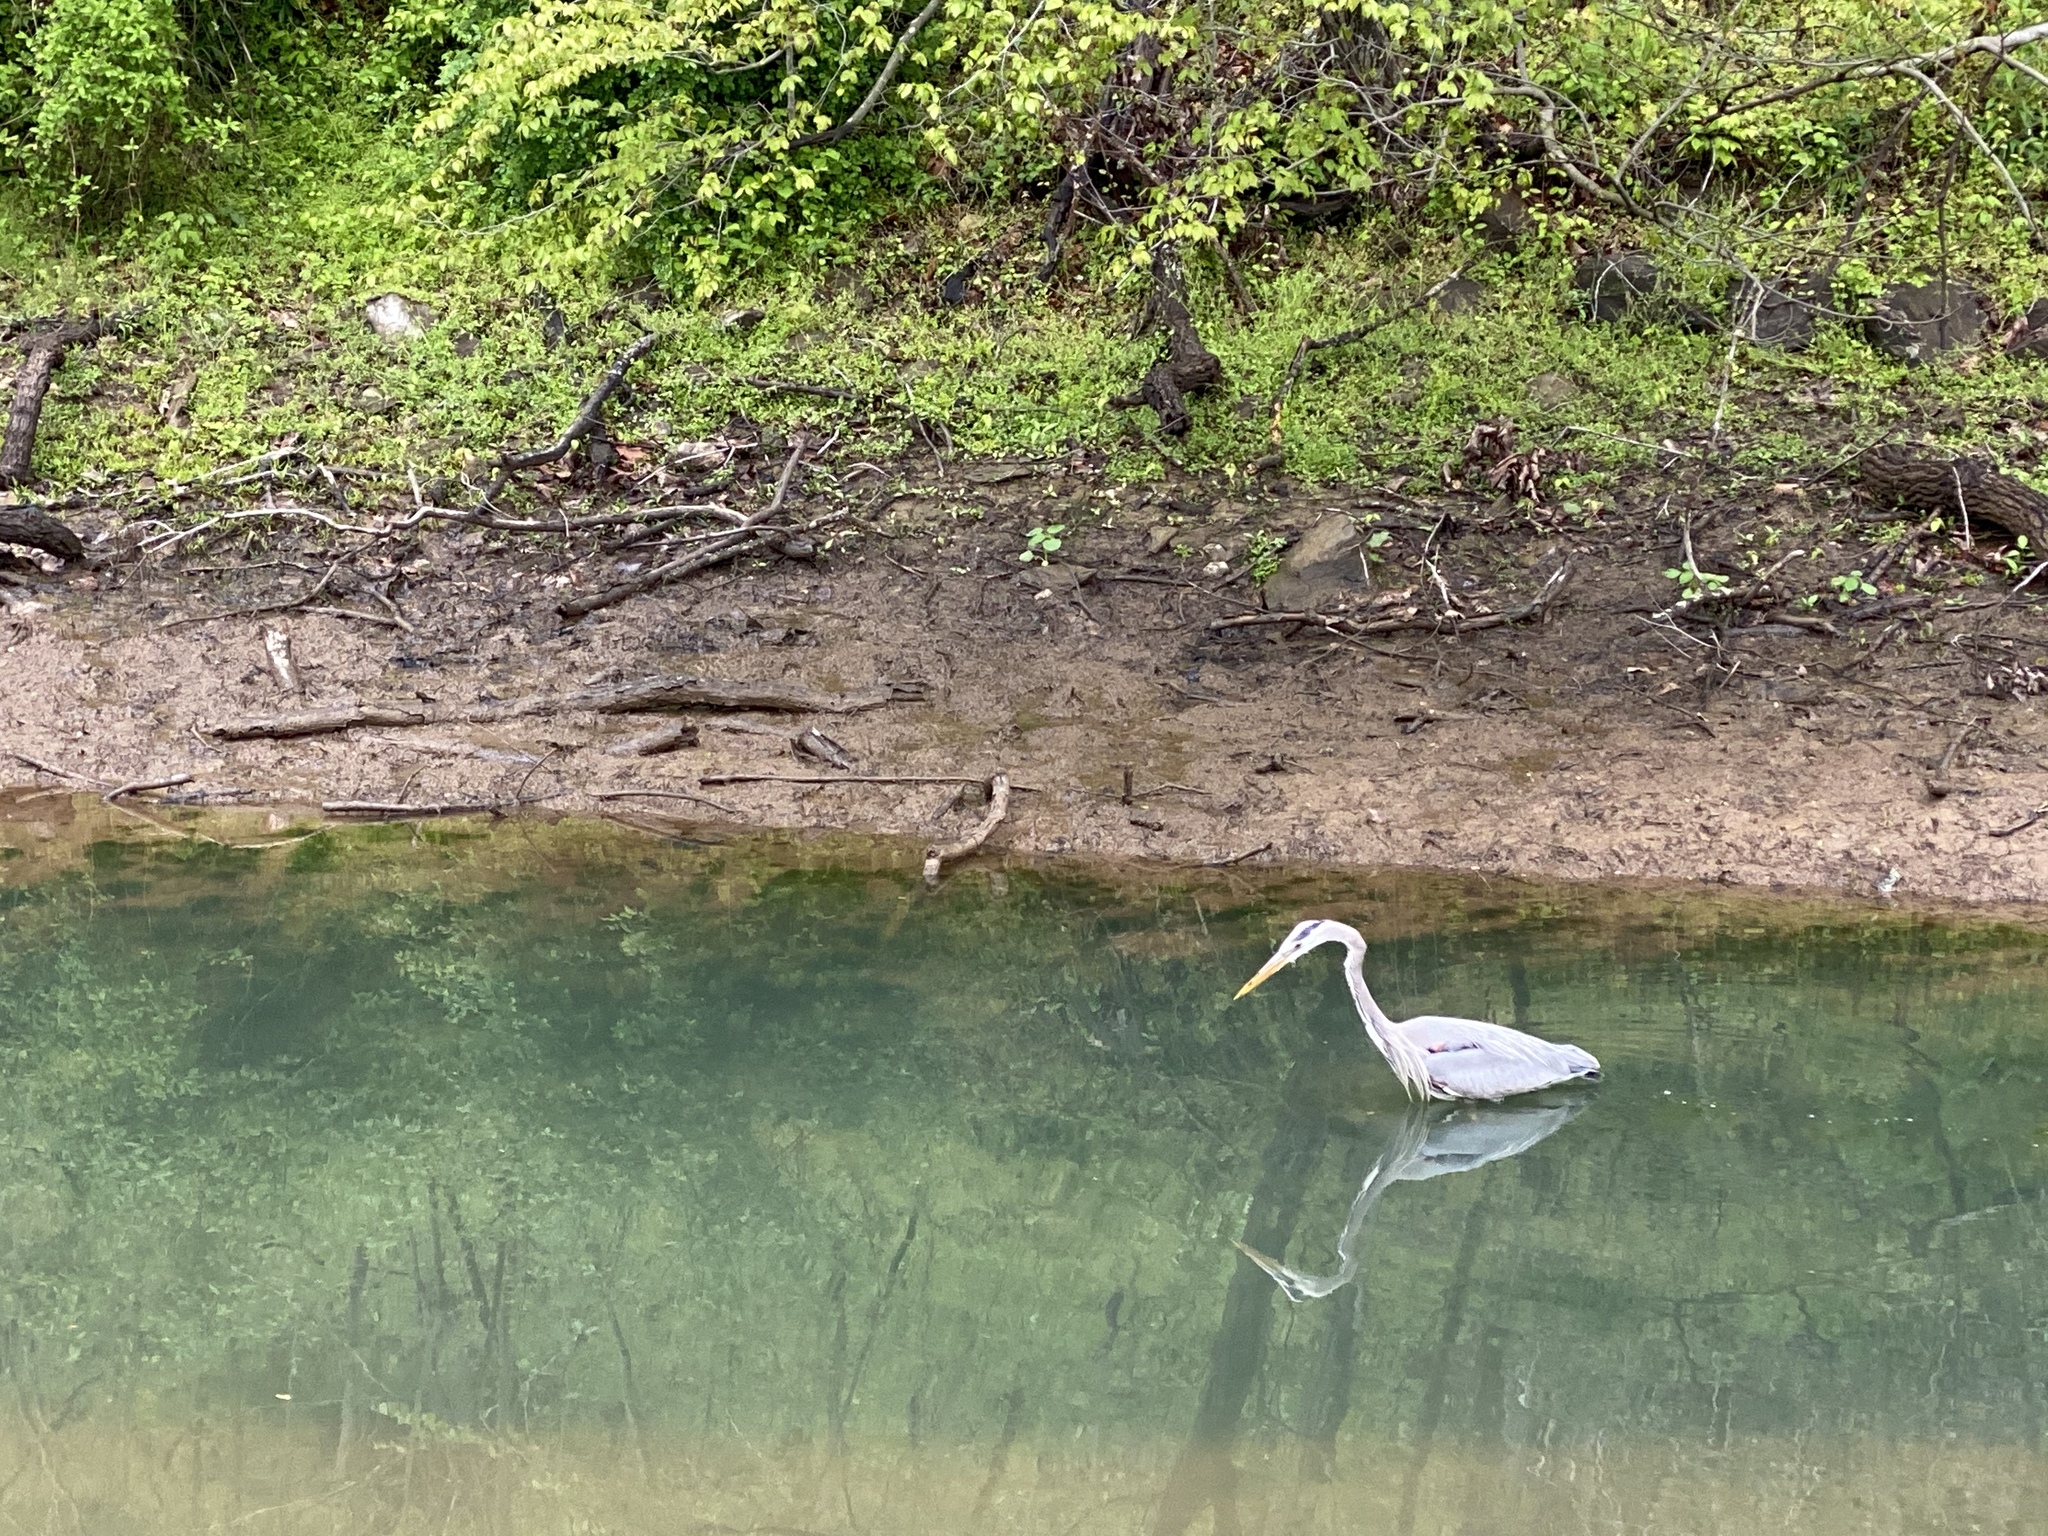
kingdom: Animalia
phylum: Chordata
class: Aves
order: Pelecaniformes
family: Ardeidae
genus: Ardea
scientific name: Ardea herodias
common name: Great blue heron
